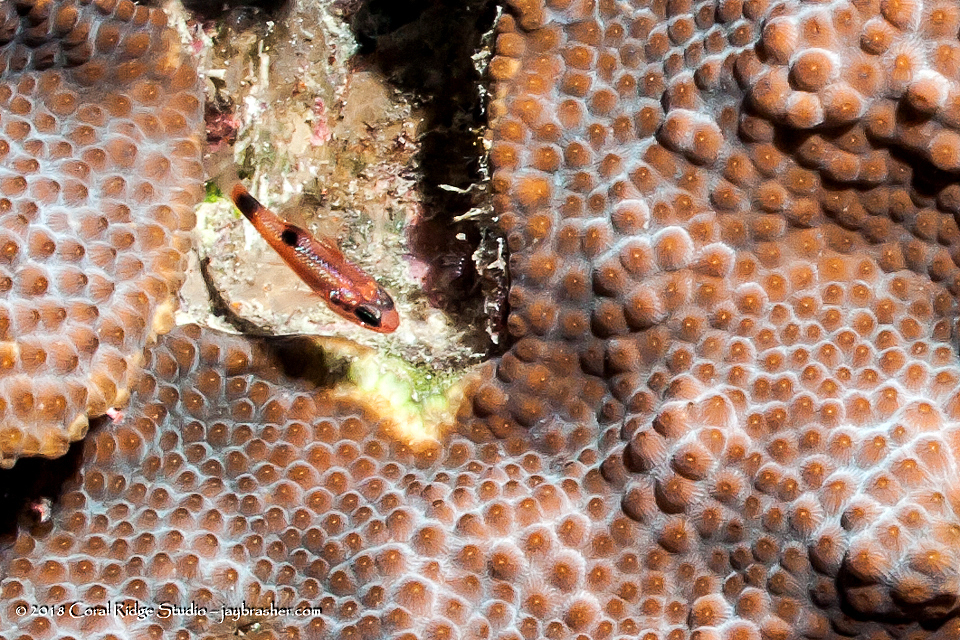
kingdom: Animalia
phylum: Chordata
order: Perciformes
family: Apogonidae
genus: Apogon
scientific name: Apogon maculatus
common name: Flamefish
